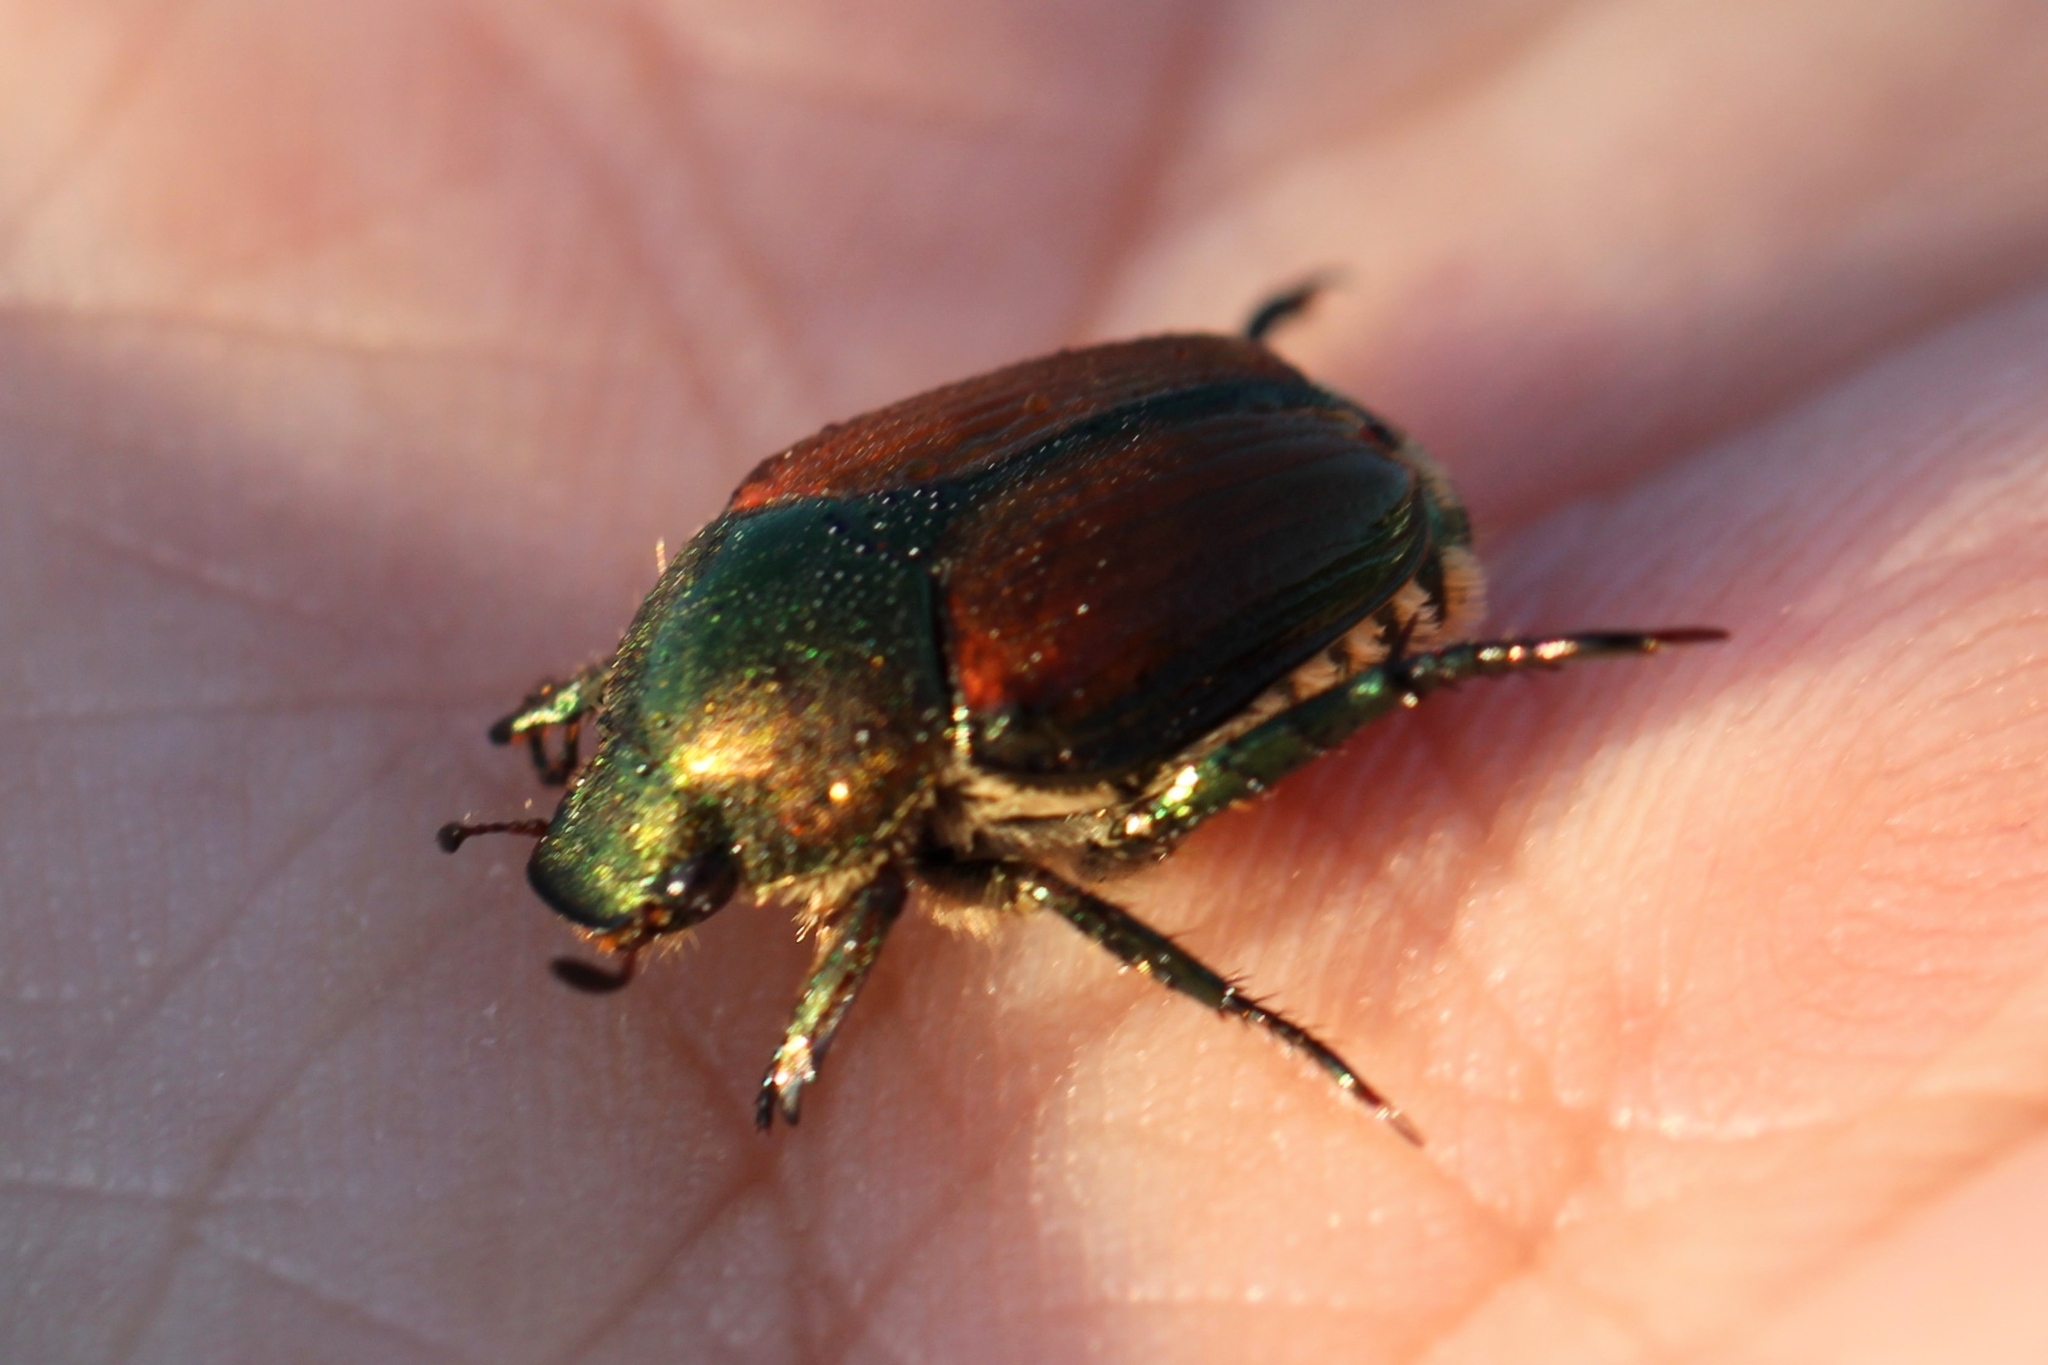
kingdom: Animalia
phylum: Arthropoda
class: Insecta
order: Coleoptera
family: Scarabaeidae
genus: Popillia
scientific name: Popillia japonica
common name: Japanese beetle
